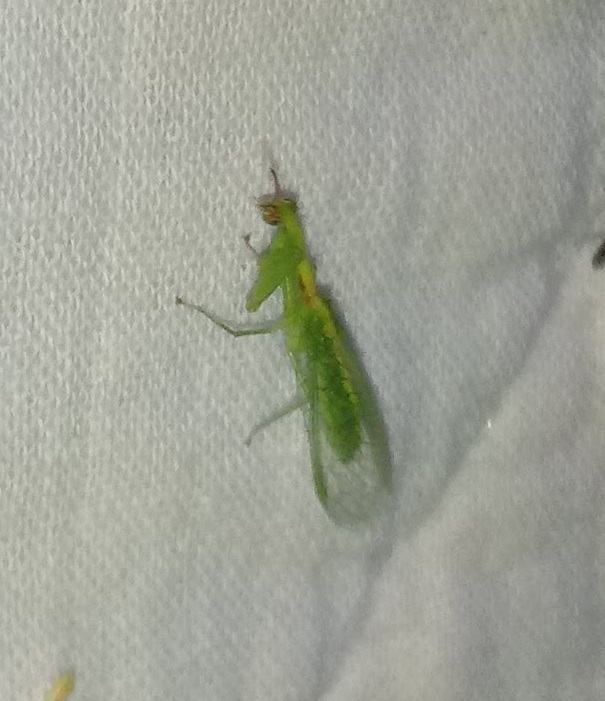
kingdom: Animalia
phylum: Arthropoda
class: Insecta
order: Neuroptera
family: Mantispidae
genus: Zeugomantispa
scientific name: Zeugomantispa minuta
